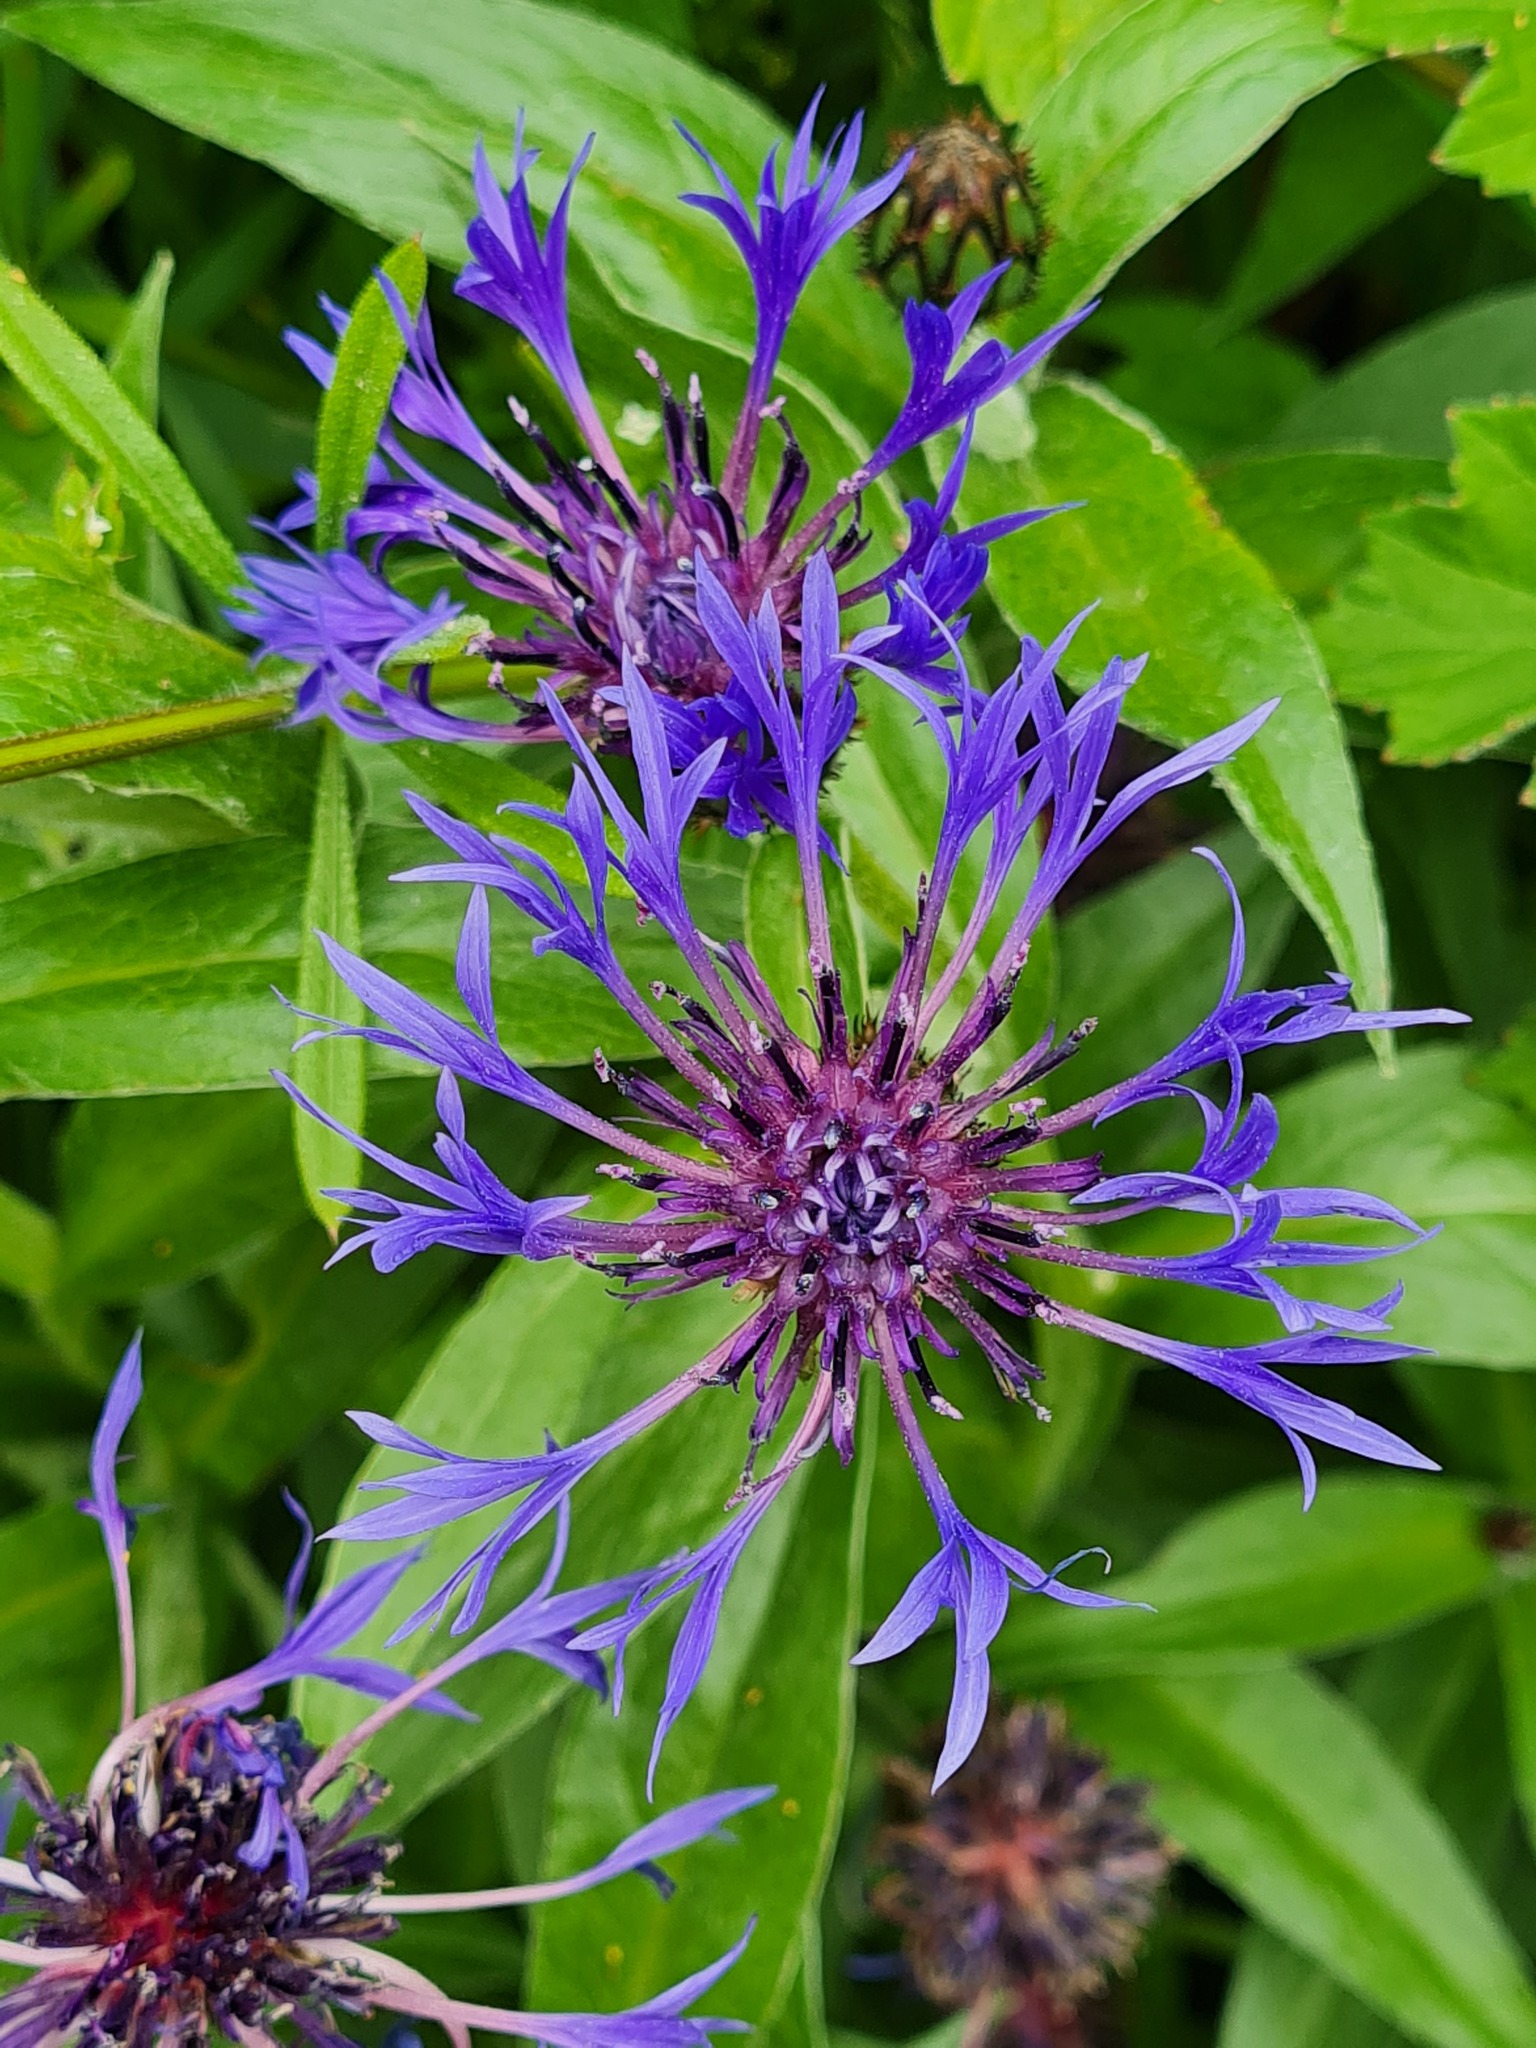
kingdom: Plantae
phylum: Tracheophyta
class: Magnoliopsida
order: Asterales
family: Asteraceae
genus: Centaurea
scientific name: Centaurea montana
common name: Perennial cornflower
